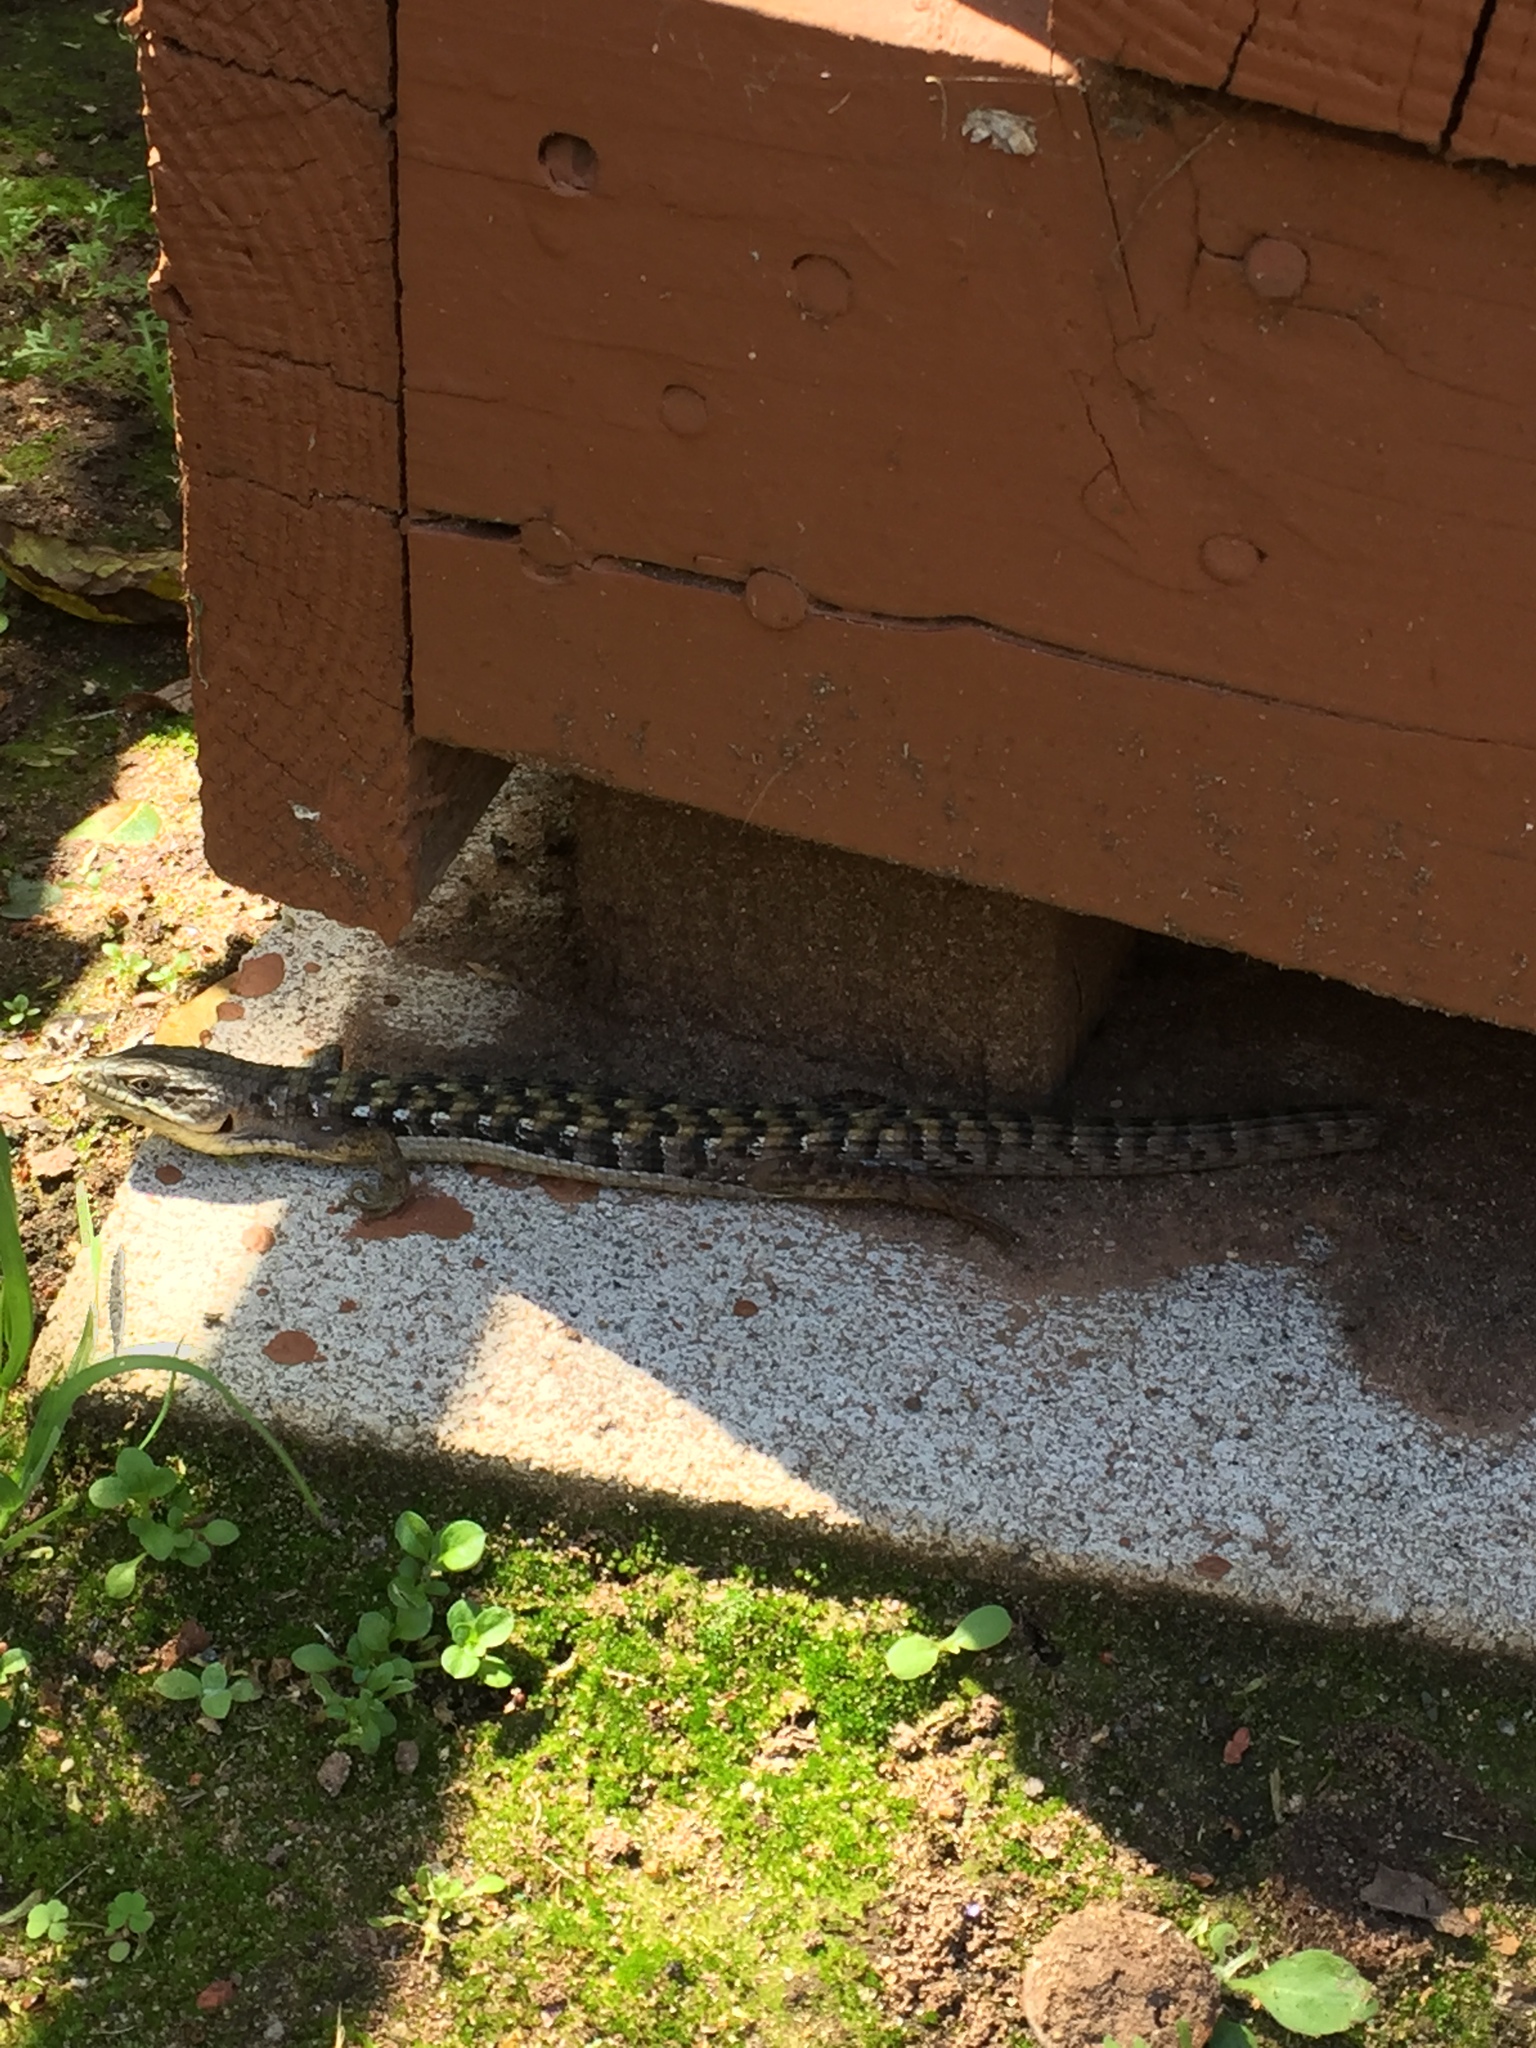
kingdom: Animalia
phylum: Chordata
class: Squamata
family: Anguidae
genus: Elgaria
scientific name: Elgaria multicarinata
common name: Southern alligator lizard
